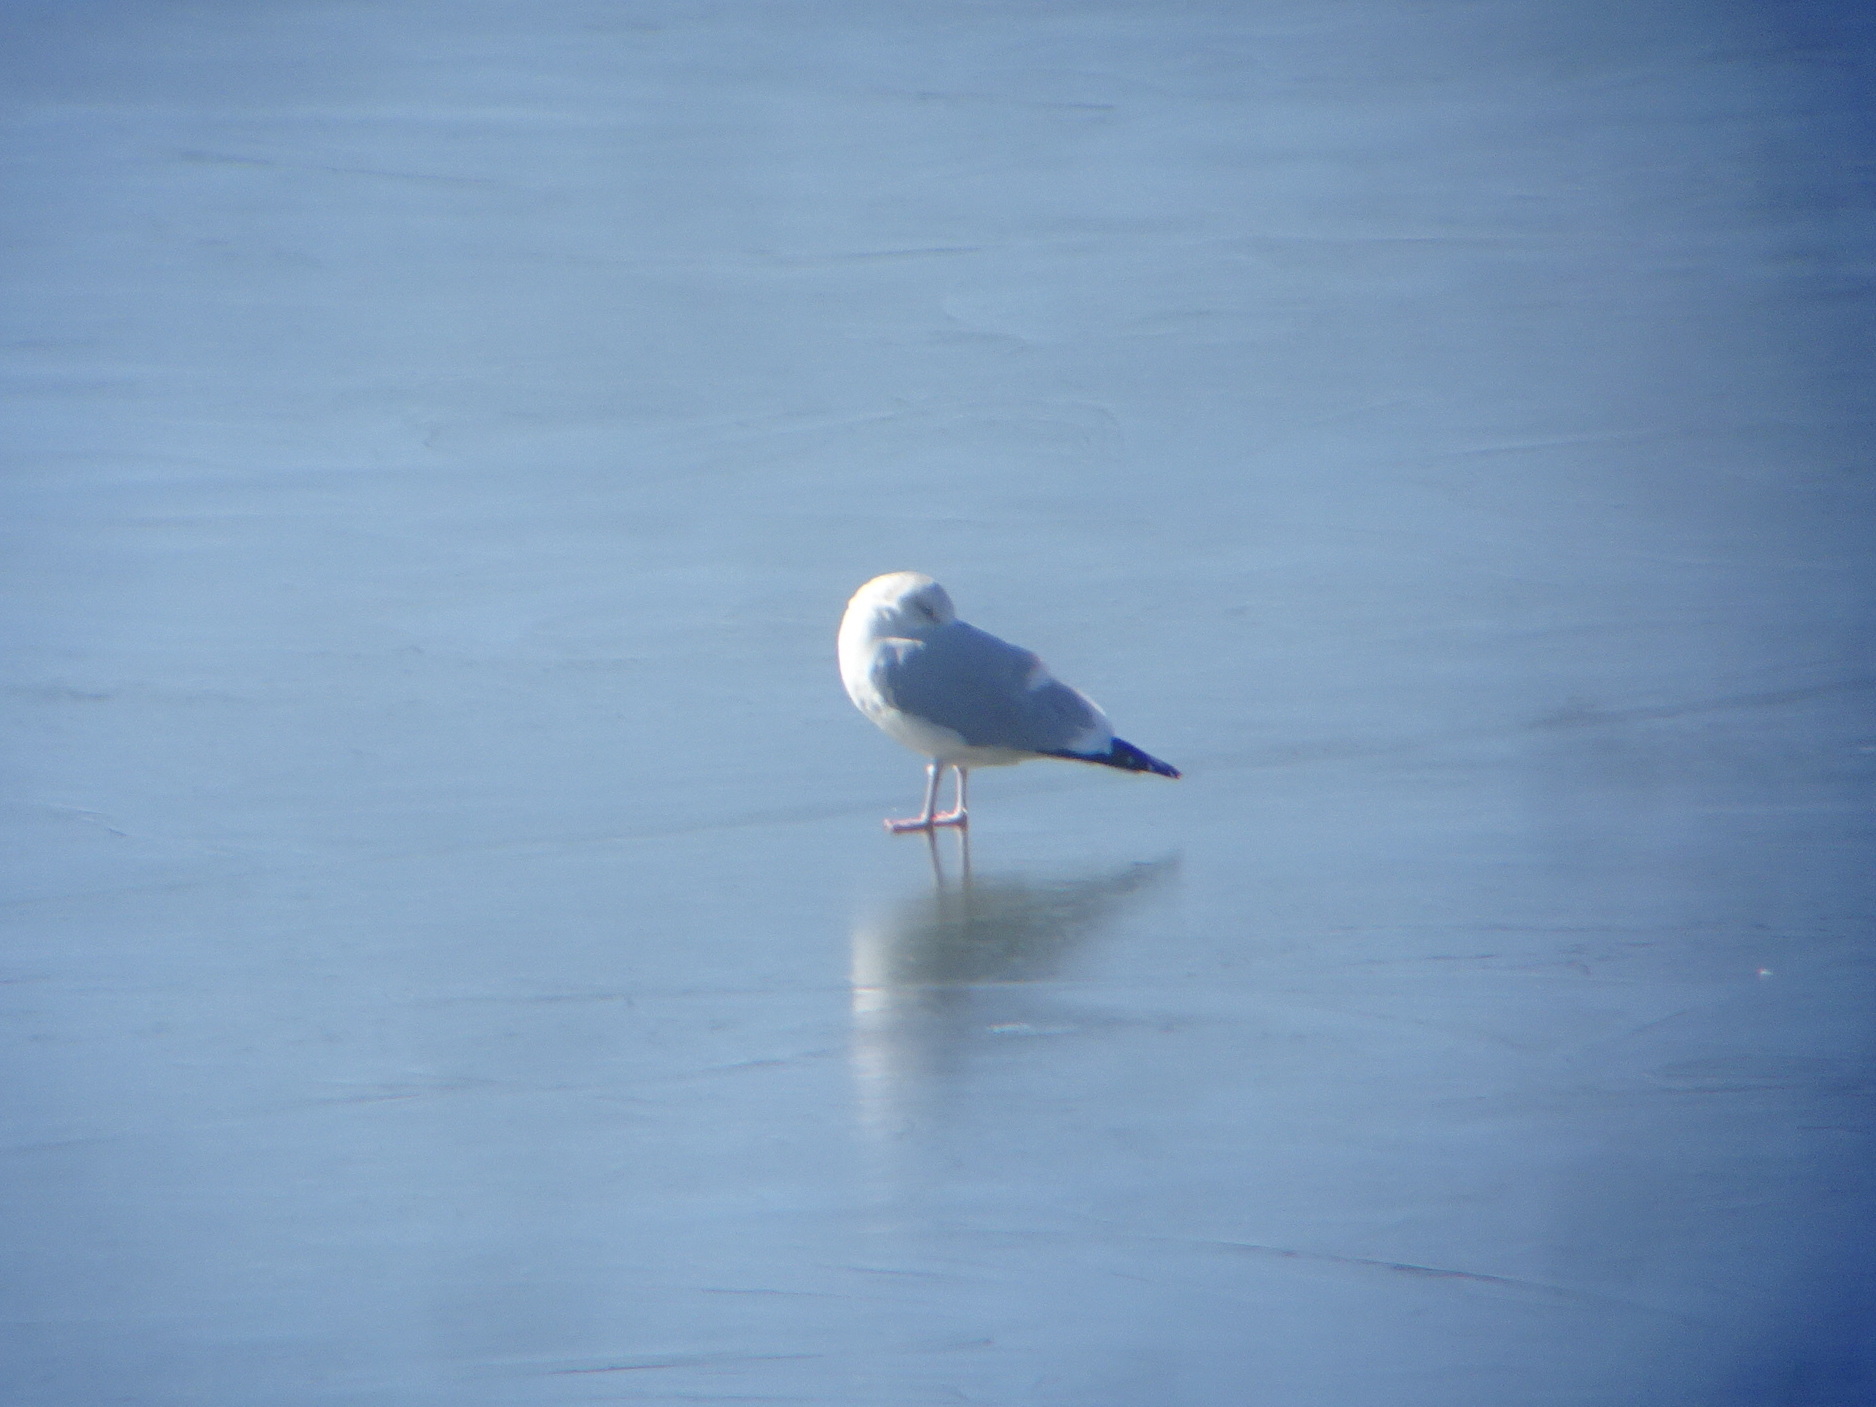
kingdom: Animalia
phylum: Chordata
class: Aves
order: Charadriiformes
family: Laridae
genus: Larus
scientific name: Larus argentatus
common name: Herring gull
